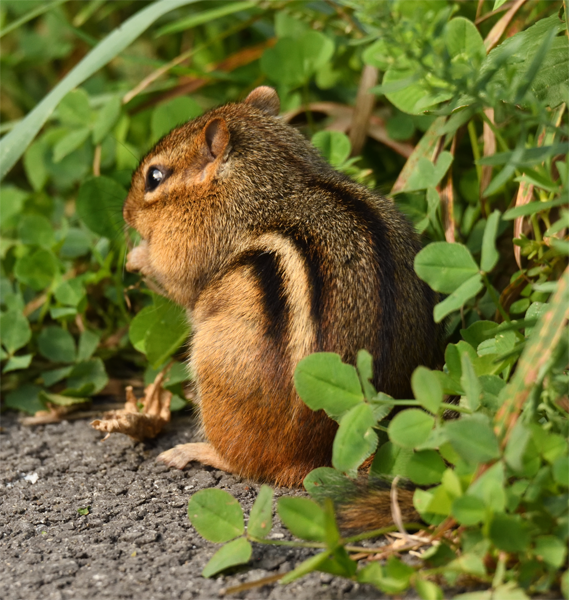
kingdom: Animalia
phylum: Chordata
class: Mammalia
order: Rodentia
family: Sciuridae
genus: Tamias
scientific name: Tamias striatus
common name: Eastern chipmunk
